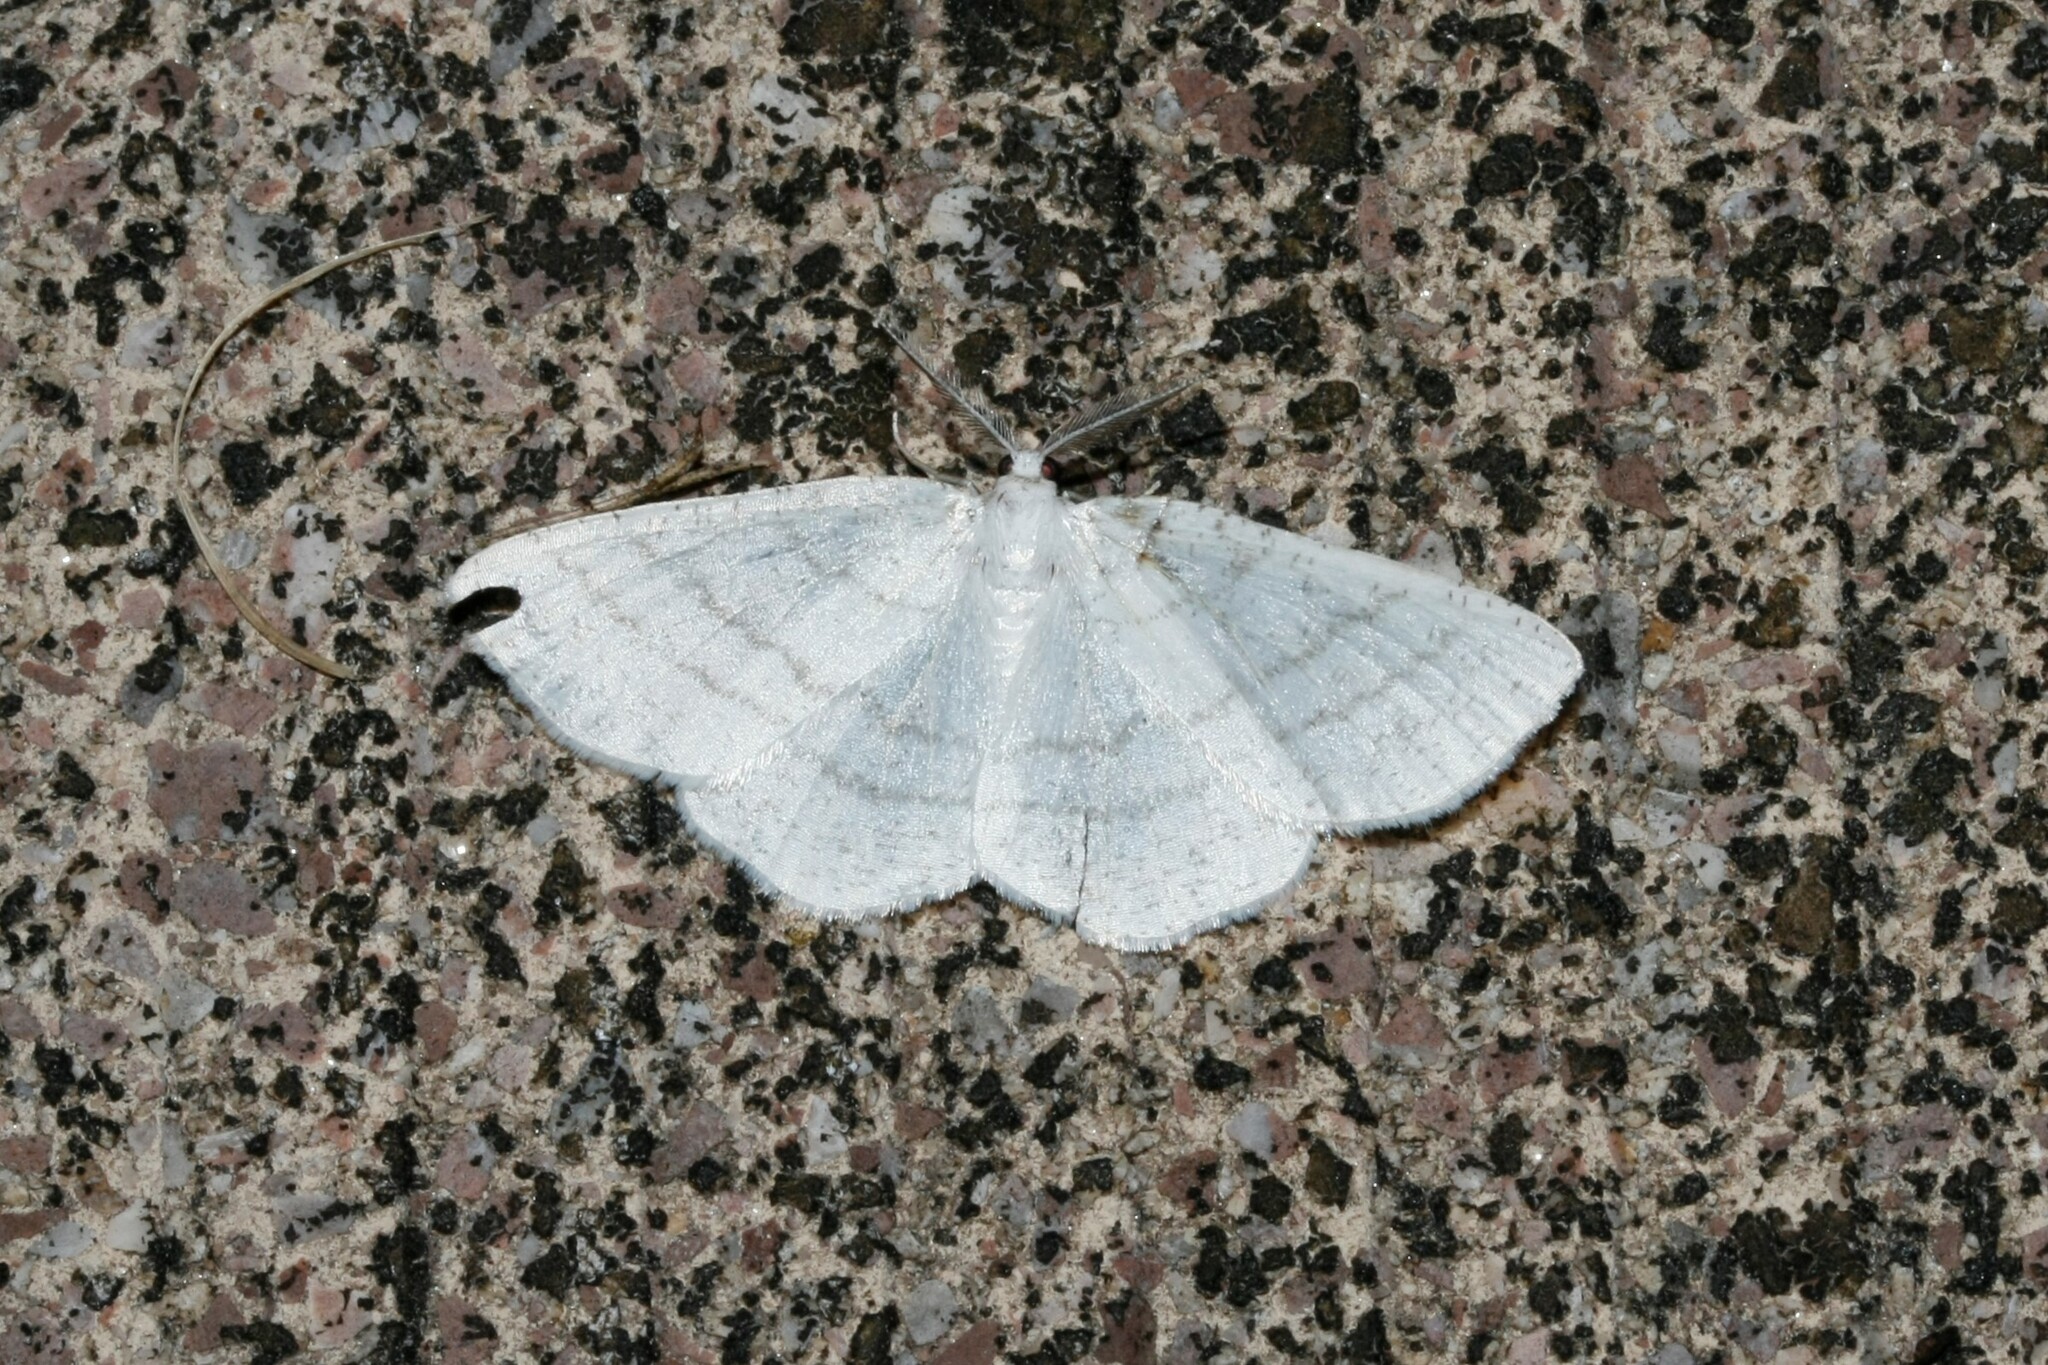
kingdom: Animalia
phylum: Arthropoda
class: Insecta
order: Lepidoptera
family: Geometridae
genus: Cabera
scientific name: Cabera pusaria
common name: Common white wave
